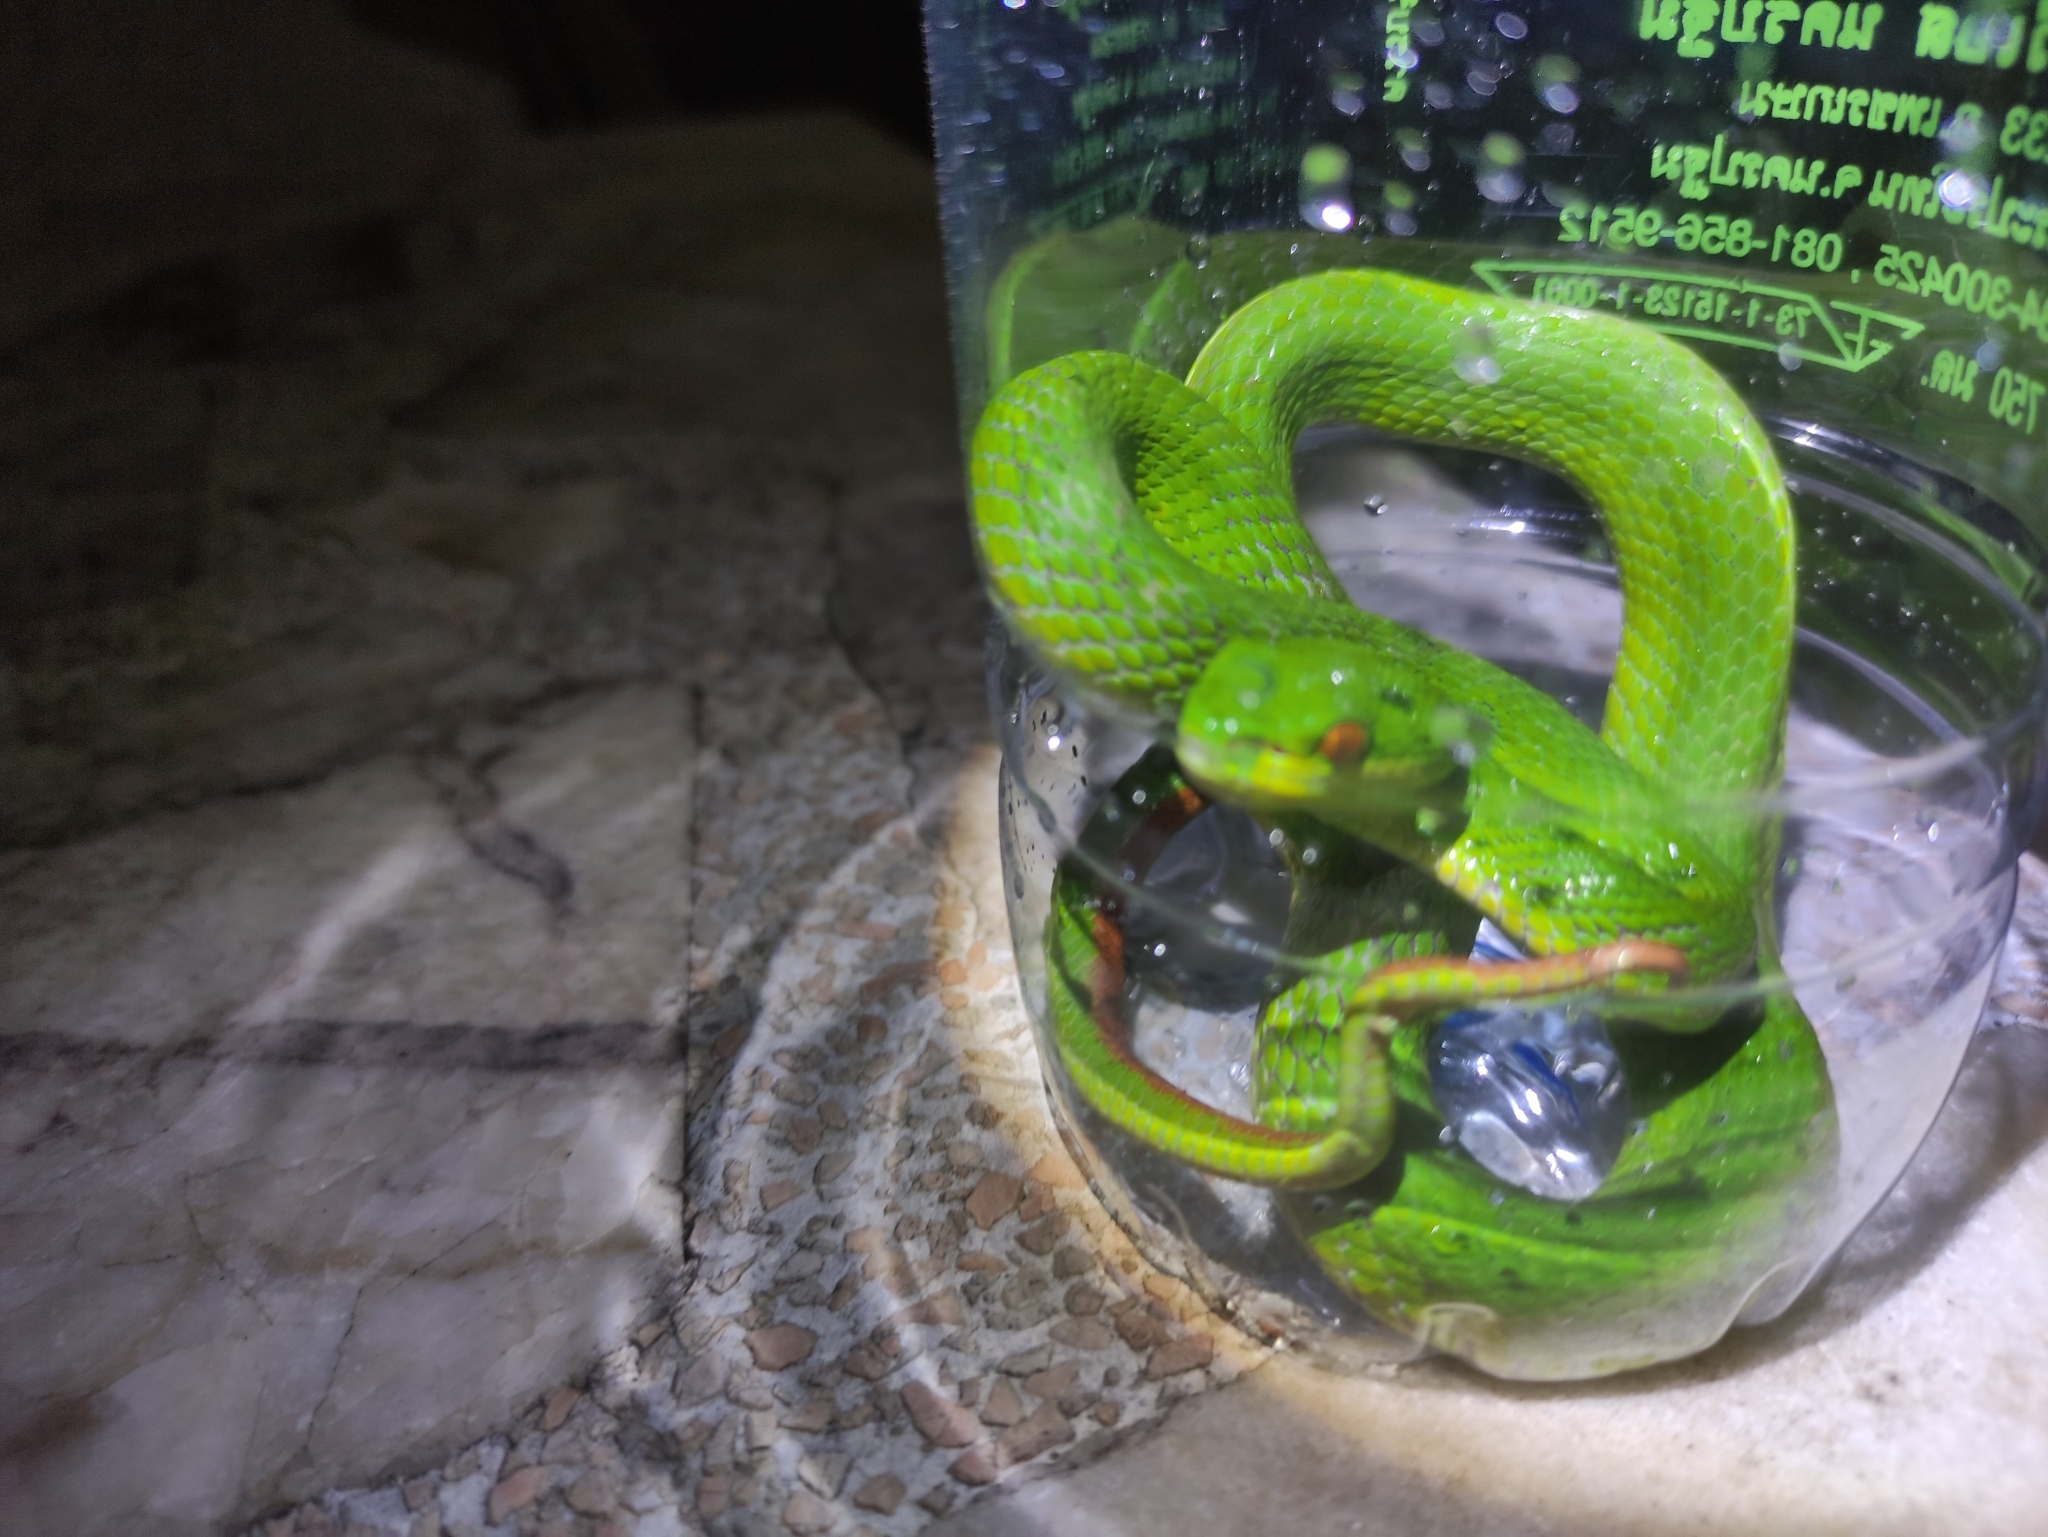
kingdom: Animalia
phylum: Chordata
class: Squamata
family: Viperidae
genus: Trimeresurus
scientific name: Trimeresurus albolabris
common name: White-lipped pitviper
